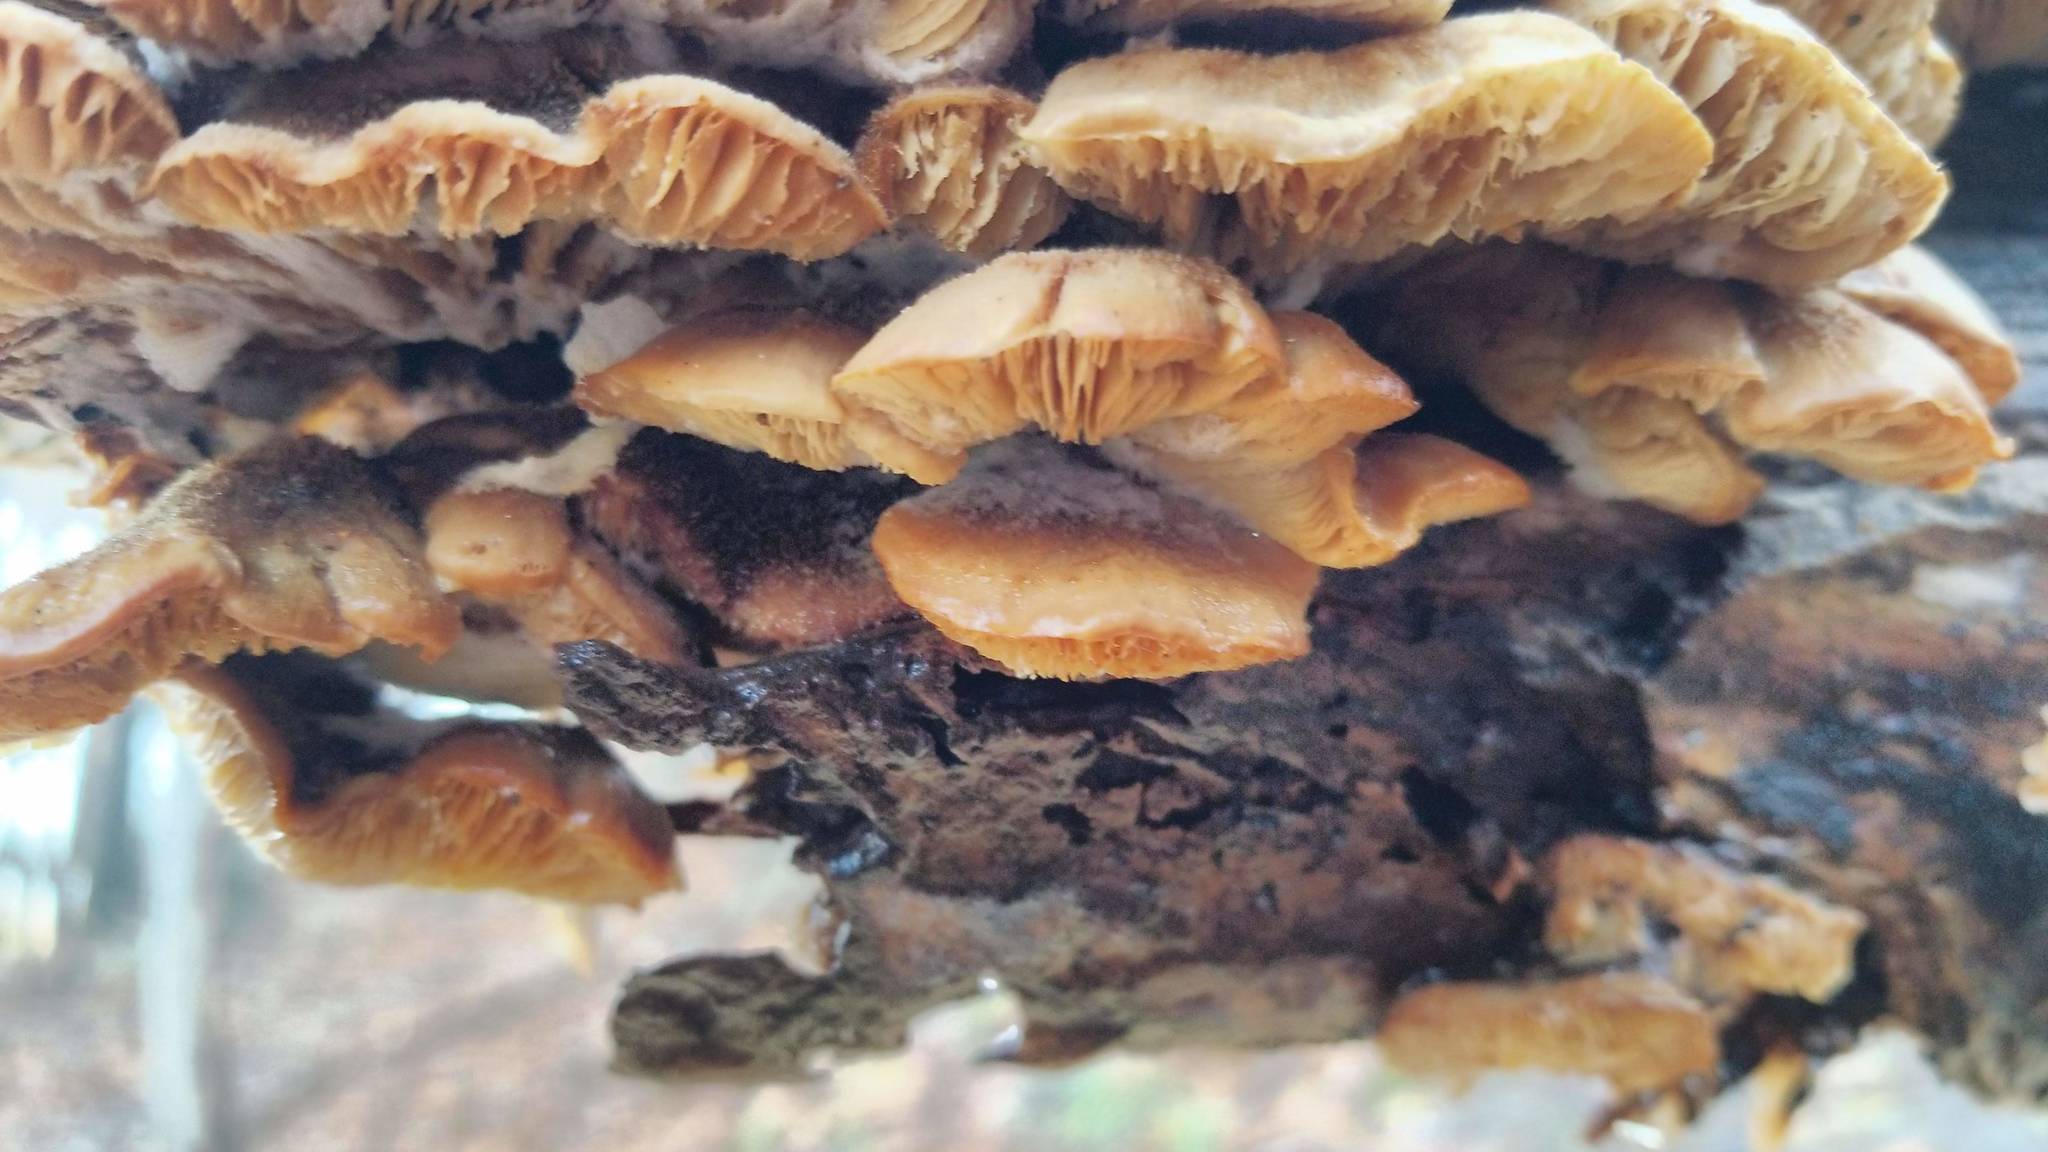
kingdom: Fungi
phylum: Basidiomycota
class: Agaricomycetes
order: Russulales
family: Auriscalpiaceae
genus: Lentinellus
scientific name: Lentinellus ursinus
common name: Bear lentinus
